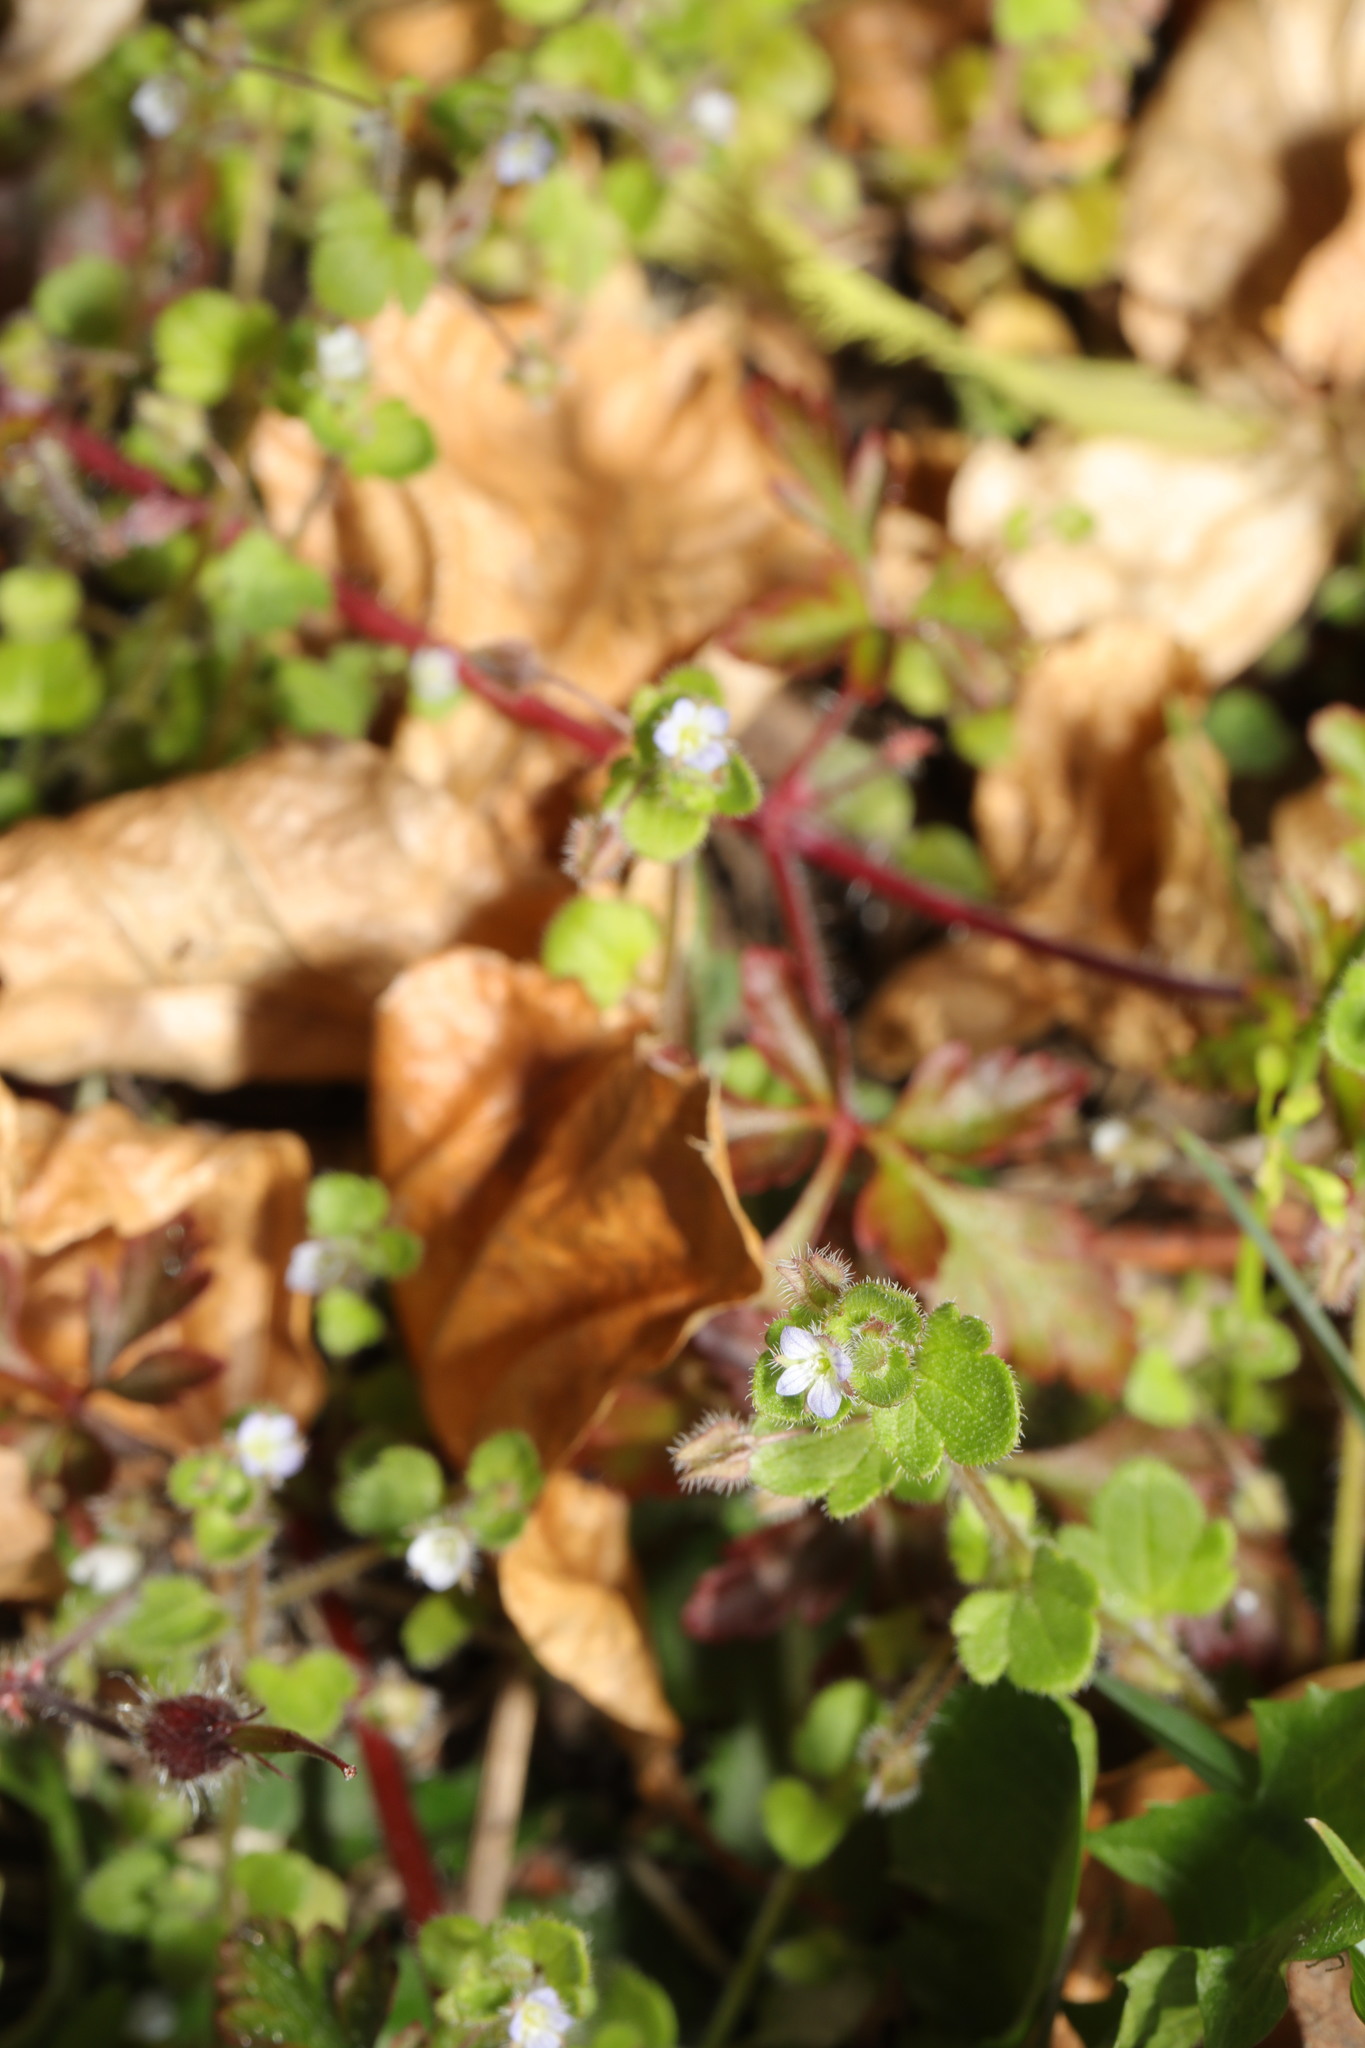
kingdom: Plantae
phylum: Tracheophyta
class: Magnoliopsida
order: Lamiales
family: Plantaginaceae
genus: Veronica
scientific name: Veronica hederifolia
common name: Ivy-leaved speedwell
